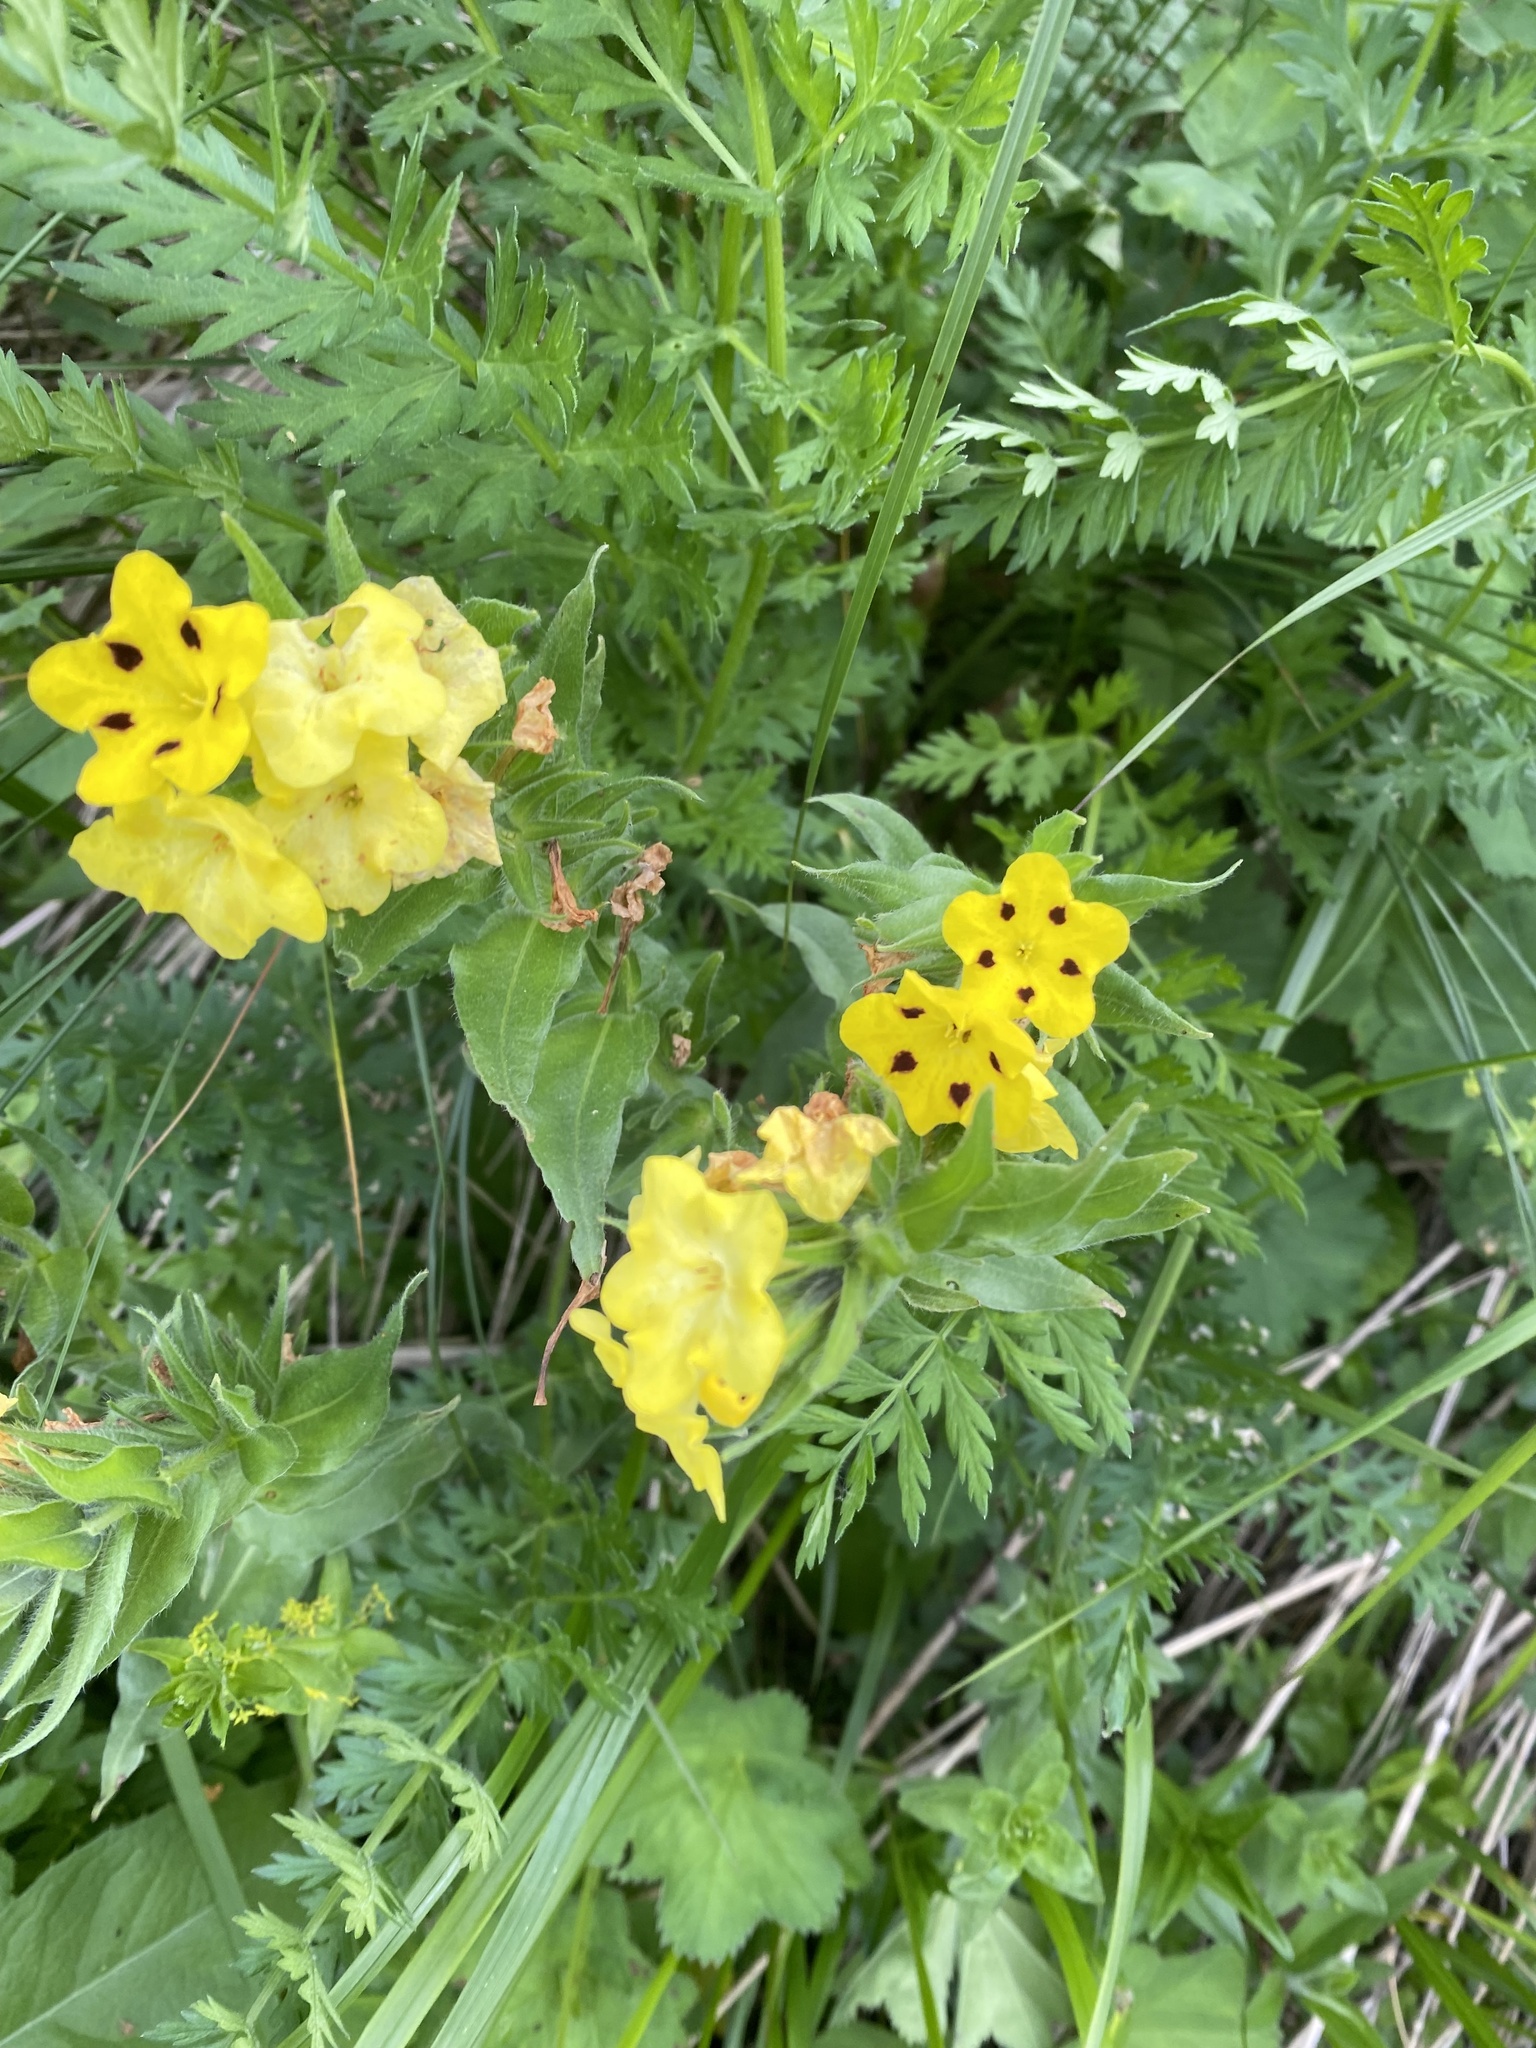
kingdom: Plantae
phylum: Tracheophyta
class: Magnoliopsida
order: Boraginales
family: Boraginaceae
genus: Huynhia
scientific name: Huynhia pulchra
